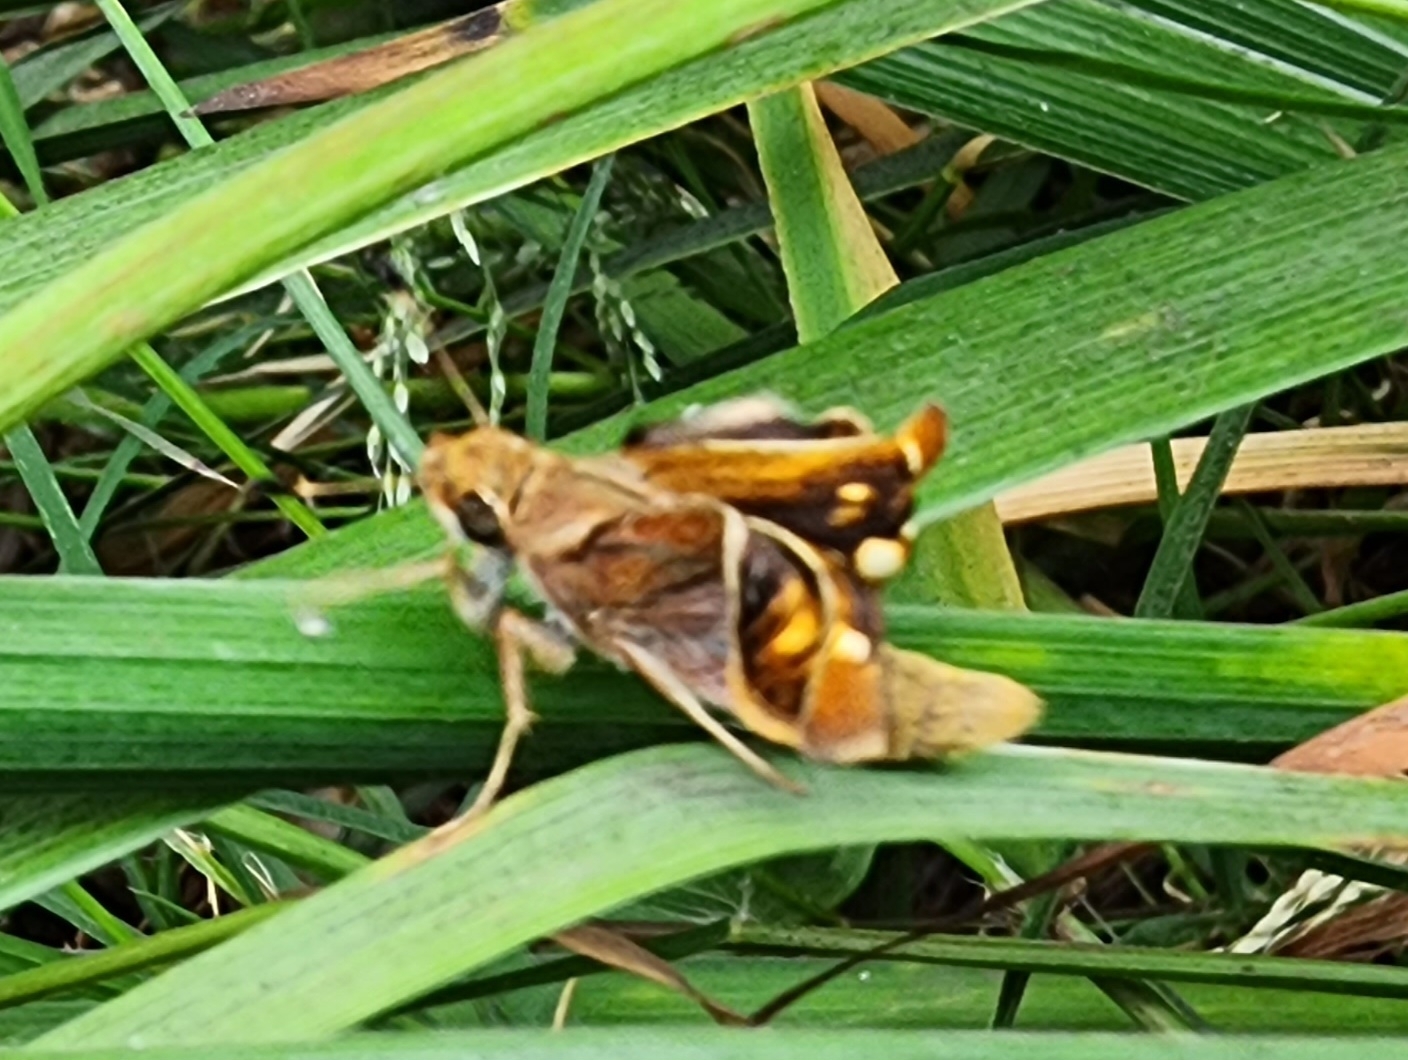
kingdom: Animalia
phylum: Arthropoda
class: Insecta
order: Lepidoptera
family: Hesperiidae
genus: Lon
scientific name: Lon melane
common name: Umber skipper
